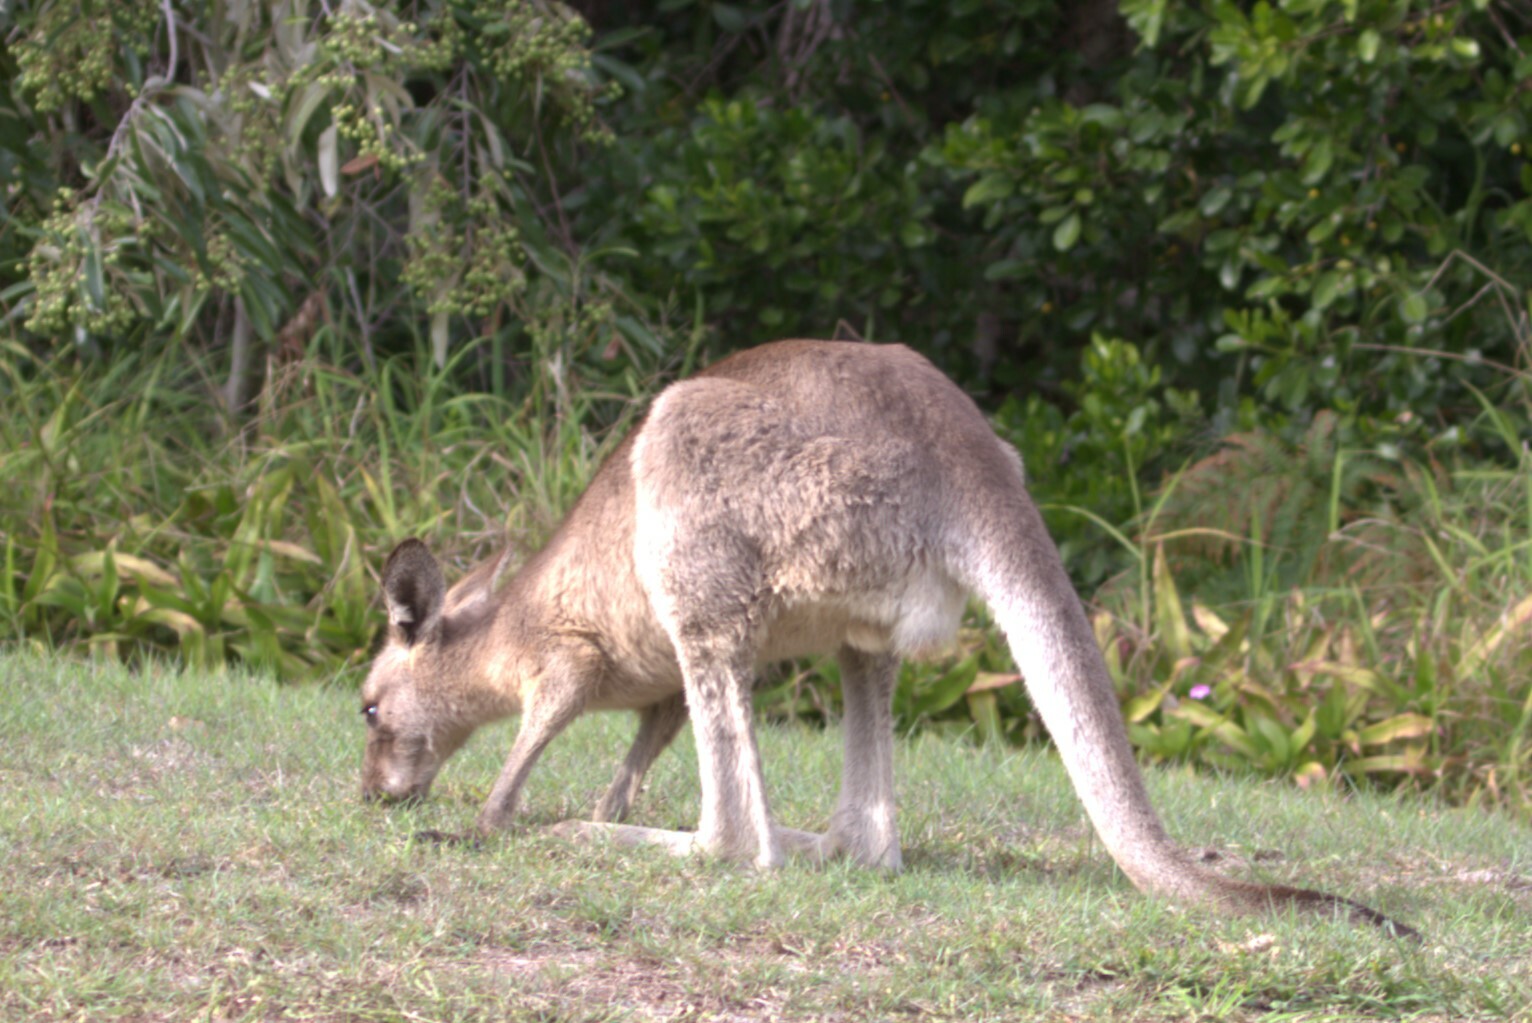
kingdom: Animalia
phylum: Chordata
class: Mammalia
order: Diprotodontia
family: Macropodidae
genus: Macropus
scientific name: Macropus giganteus
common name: Eastern grey kangaroo
